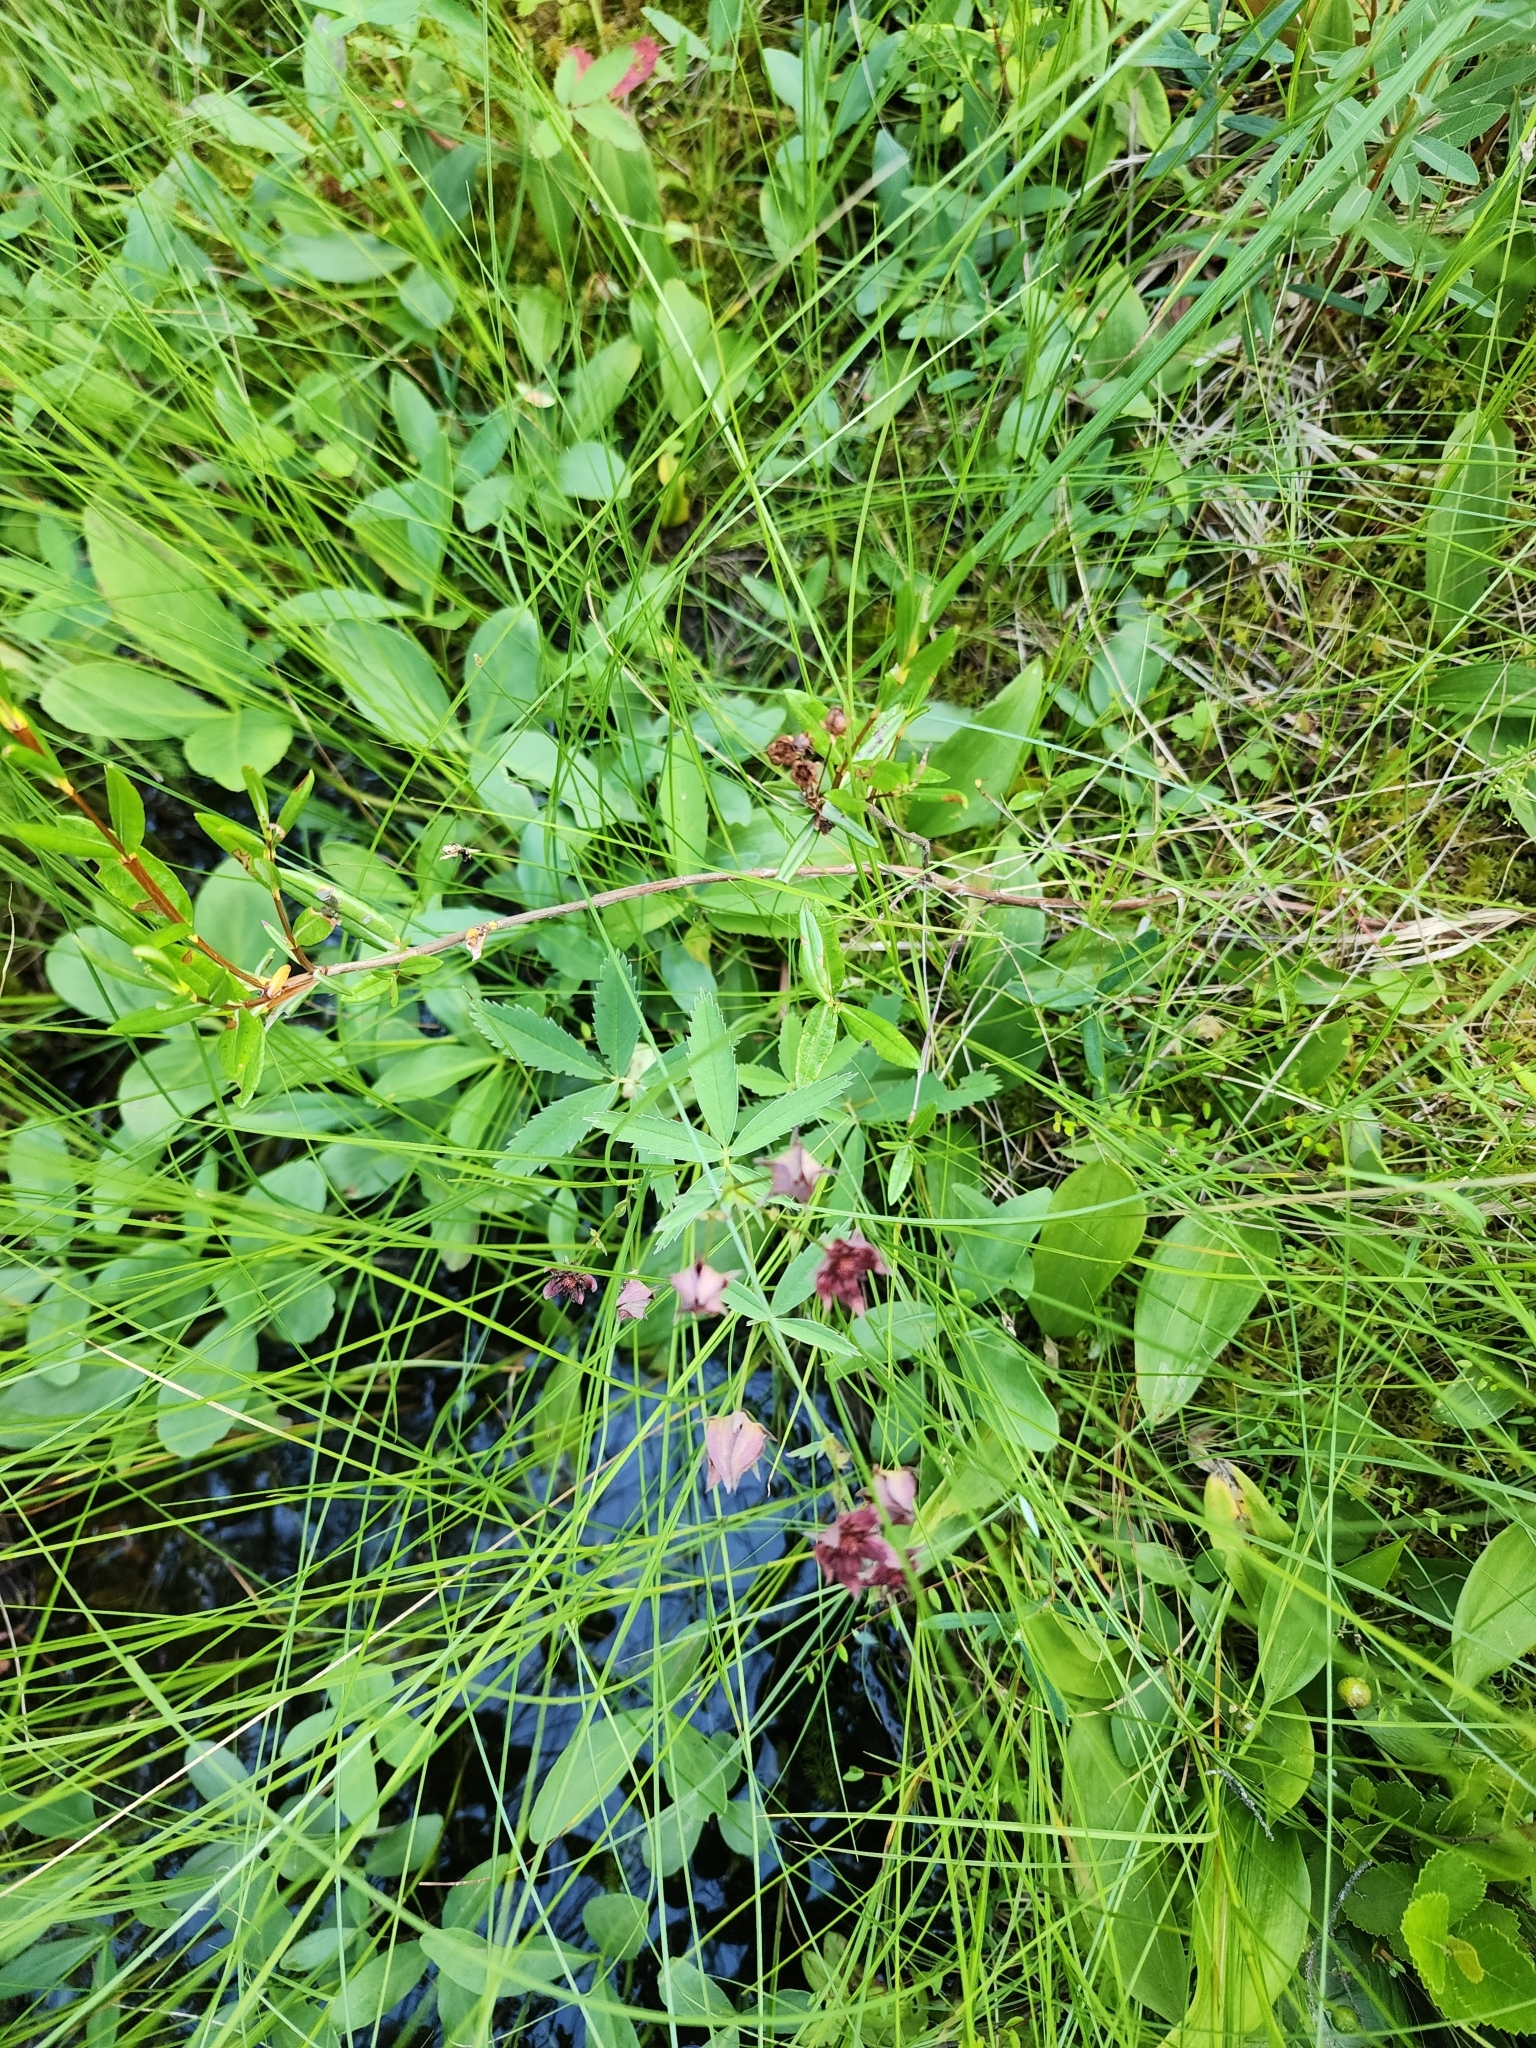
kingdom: Plantae
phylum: Tracheophyta
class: Magnoliopsida
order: Rosales
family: Rosaceae
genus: Comarum
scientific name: Comarum palustre
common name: Marsh cinquefoil
